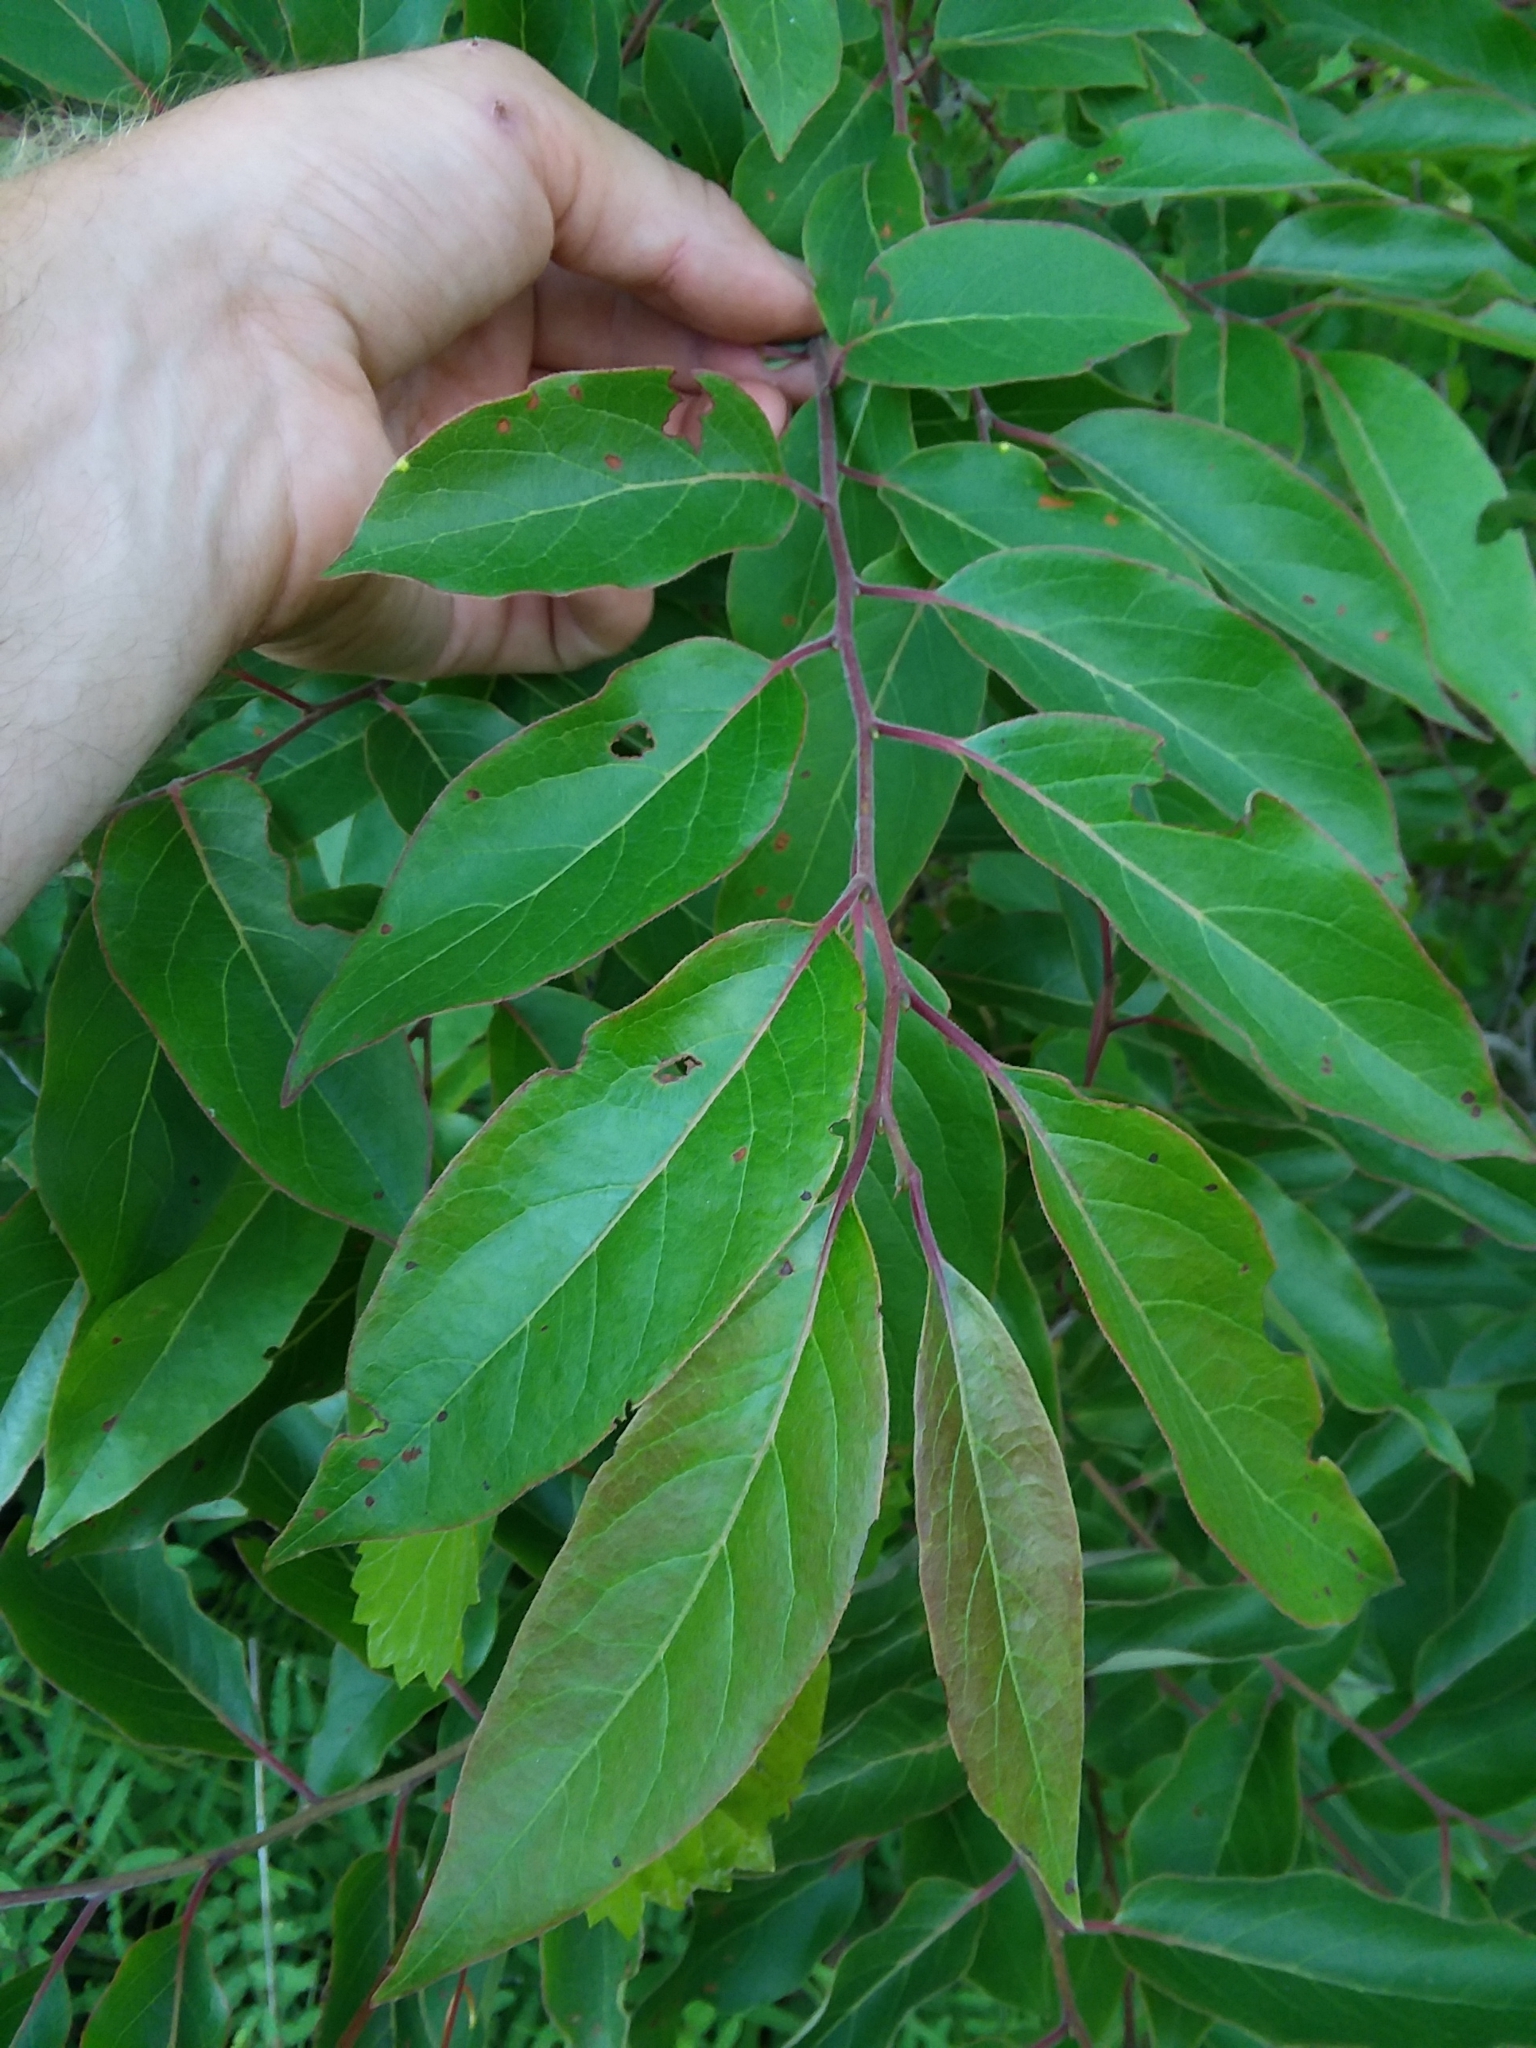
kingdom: Plantae
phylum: Tracheophyta
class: Magnoliopsida
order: Ericales
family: Ebenaceae
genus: Diospyros
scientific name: Diospyros virginiana
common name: Persimmon
